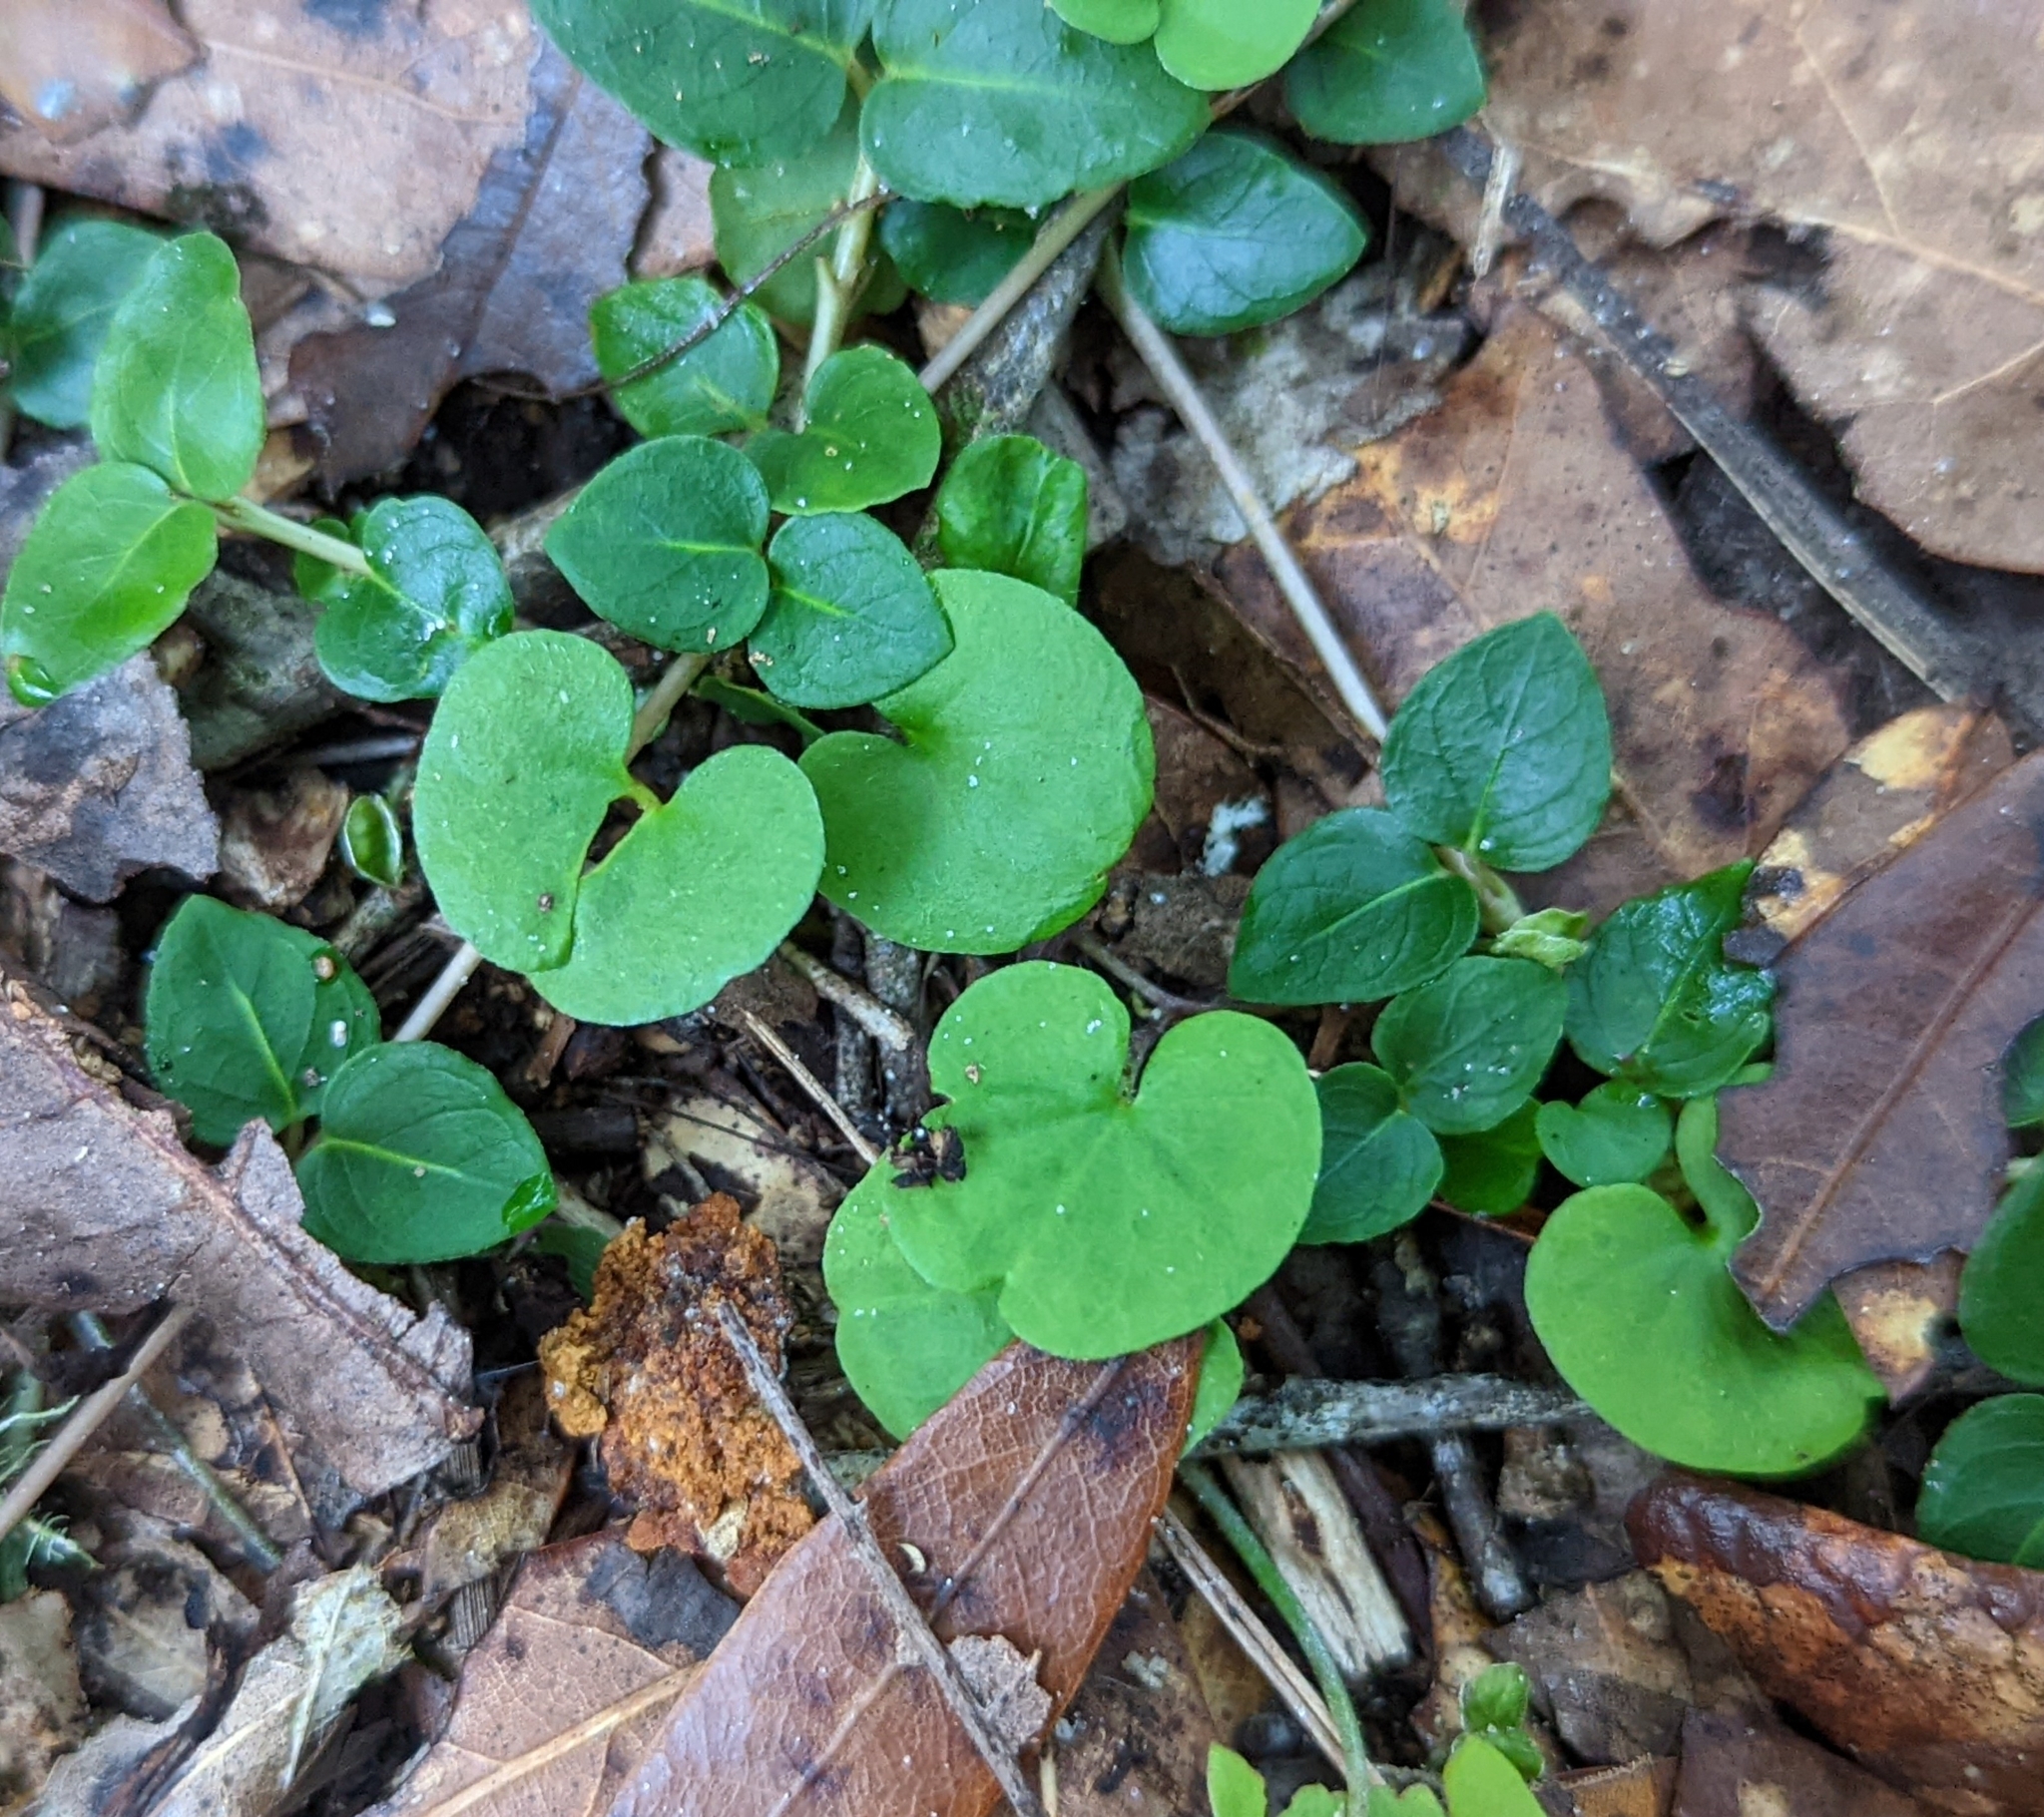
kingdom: Plantae
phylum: Tracheophyta
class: Magnoliopsida
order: Solanales
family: Convolvulaceae
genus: Dichondra
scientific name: Dichondra carolinensis
